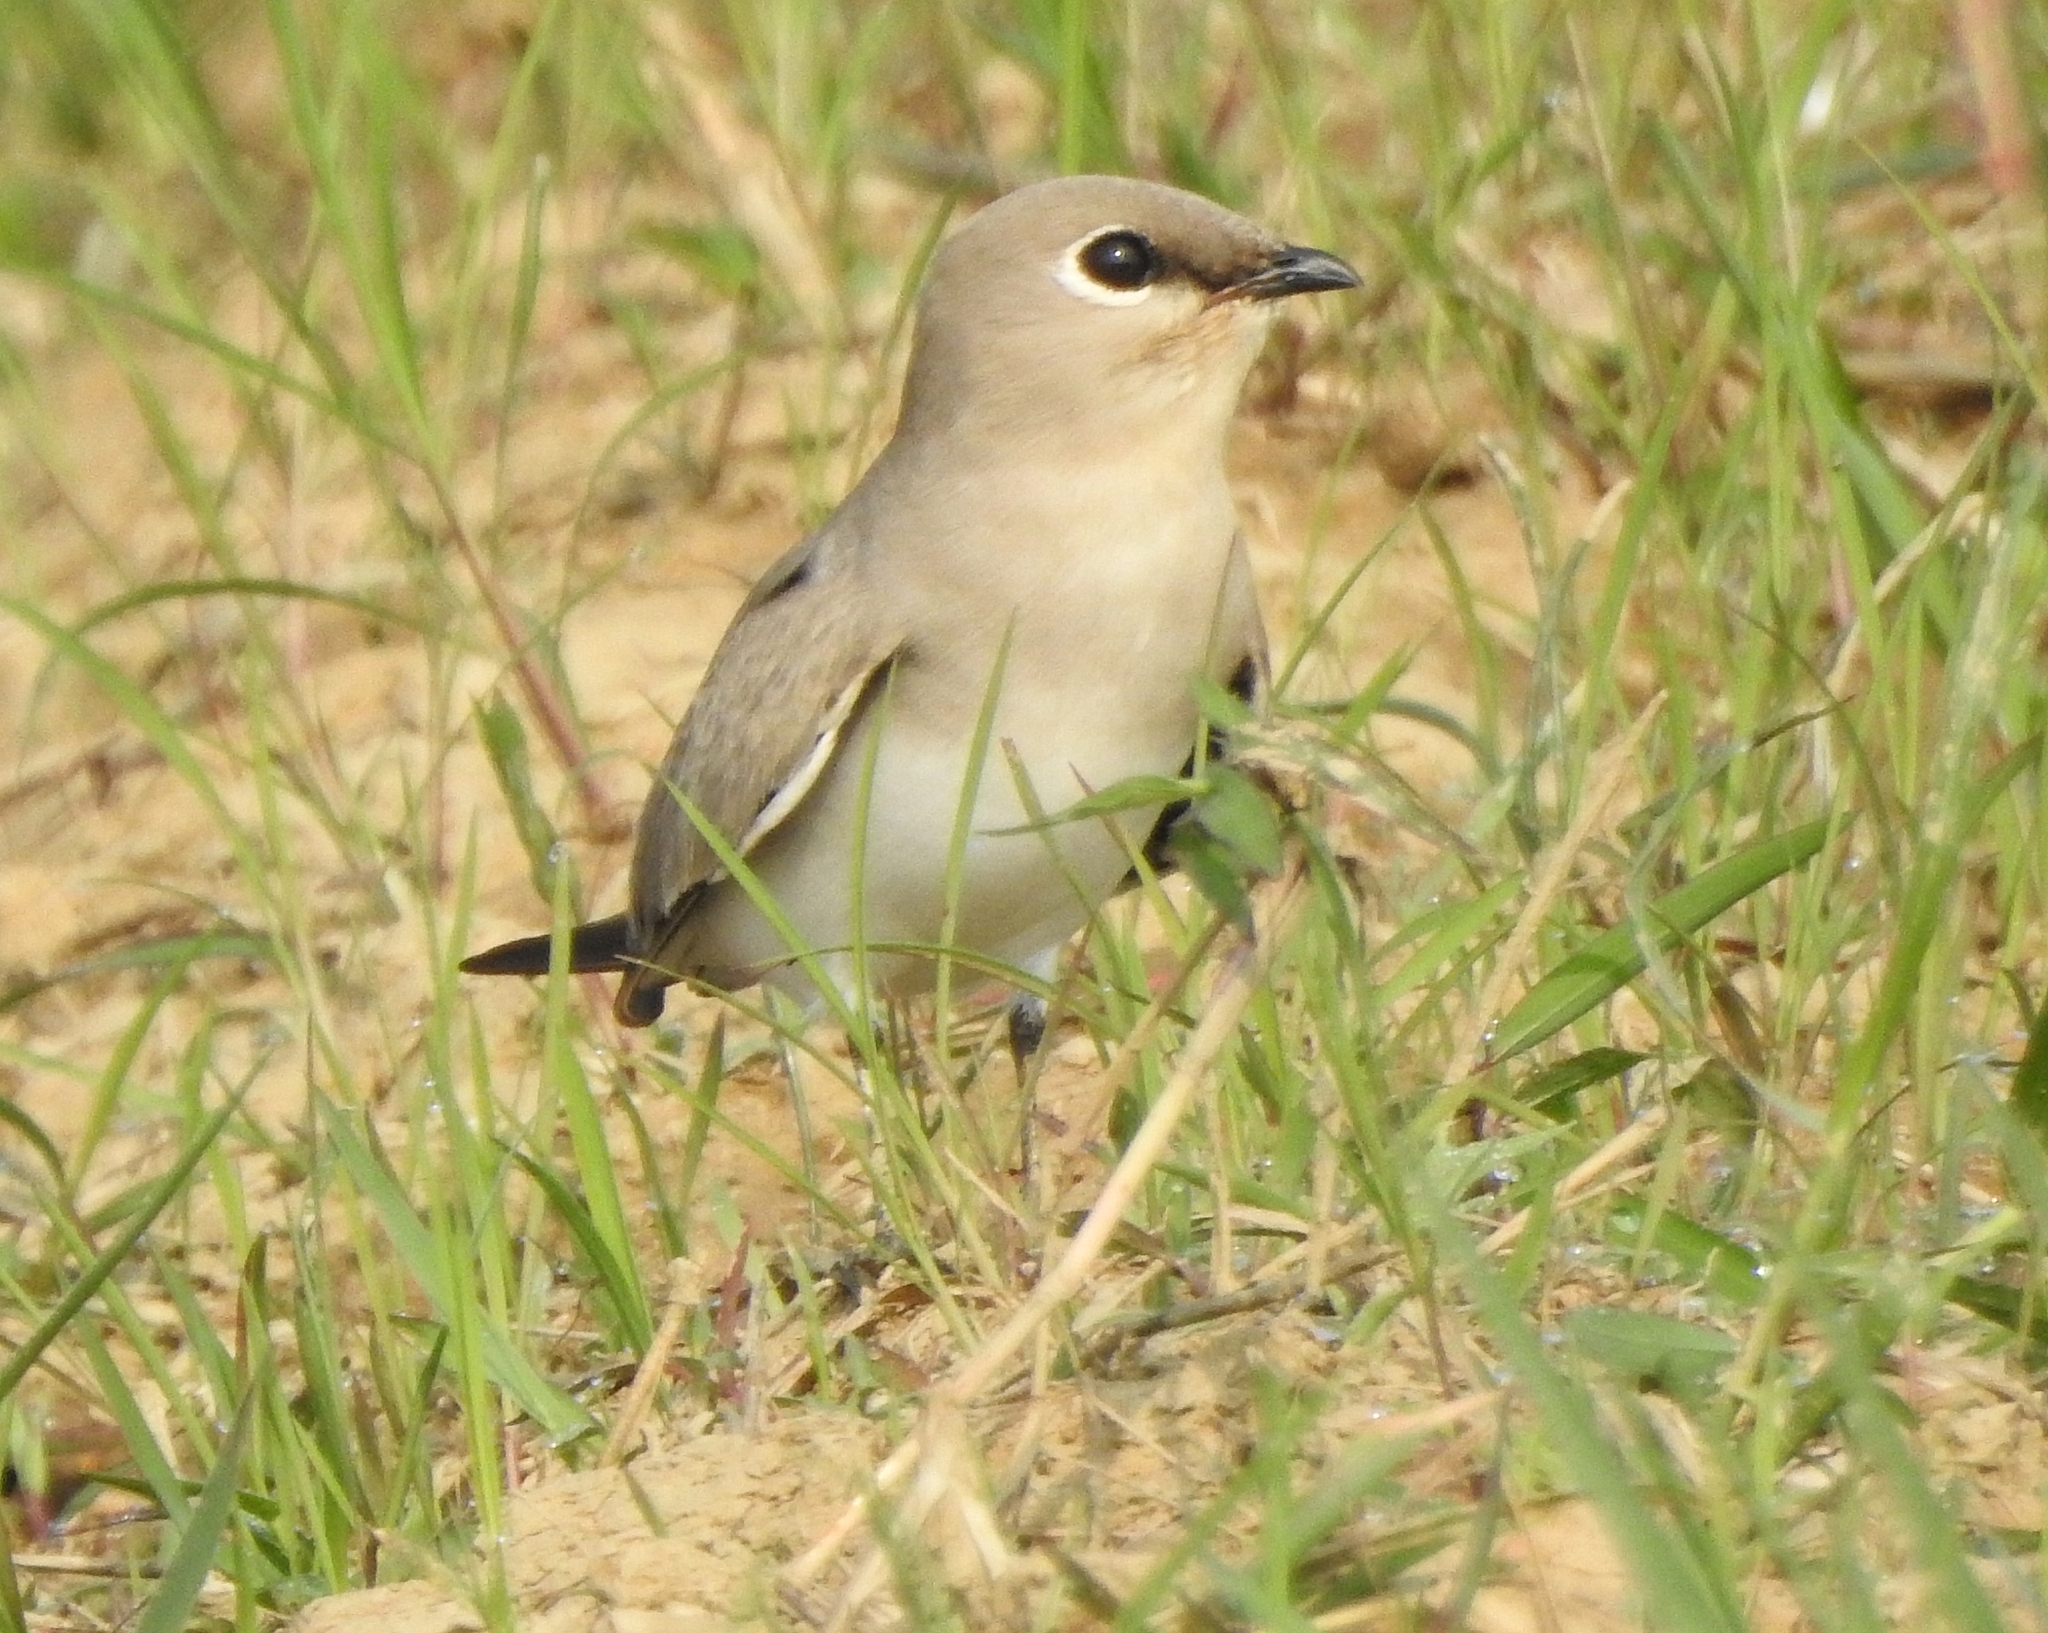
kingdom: Animalia
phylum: Chordata
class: Aves
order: Charadriiformes
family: Glareolidae
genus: Glareola
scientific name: Glareola lactea
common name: Small pratincole
